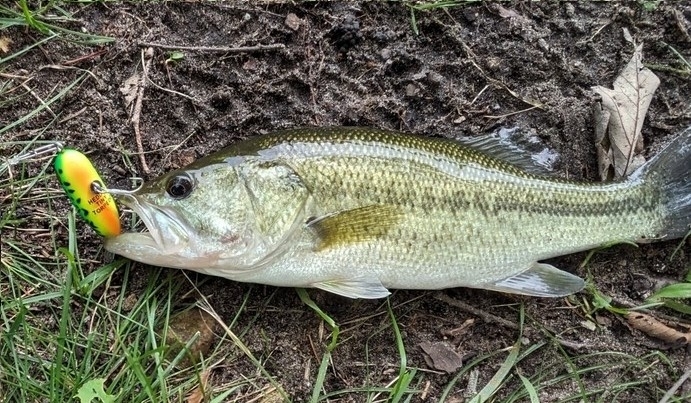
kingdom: Animalia
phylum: Chordata
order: Perciformes
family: Centrarchidae
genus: Micropterus
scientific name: Micropterus
